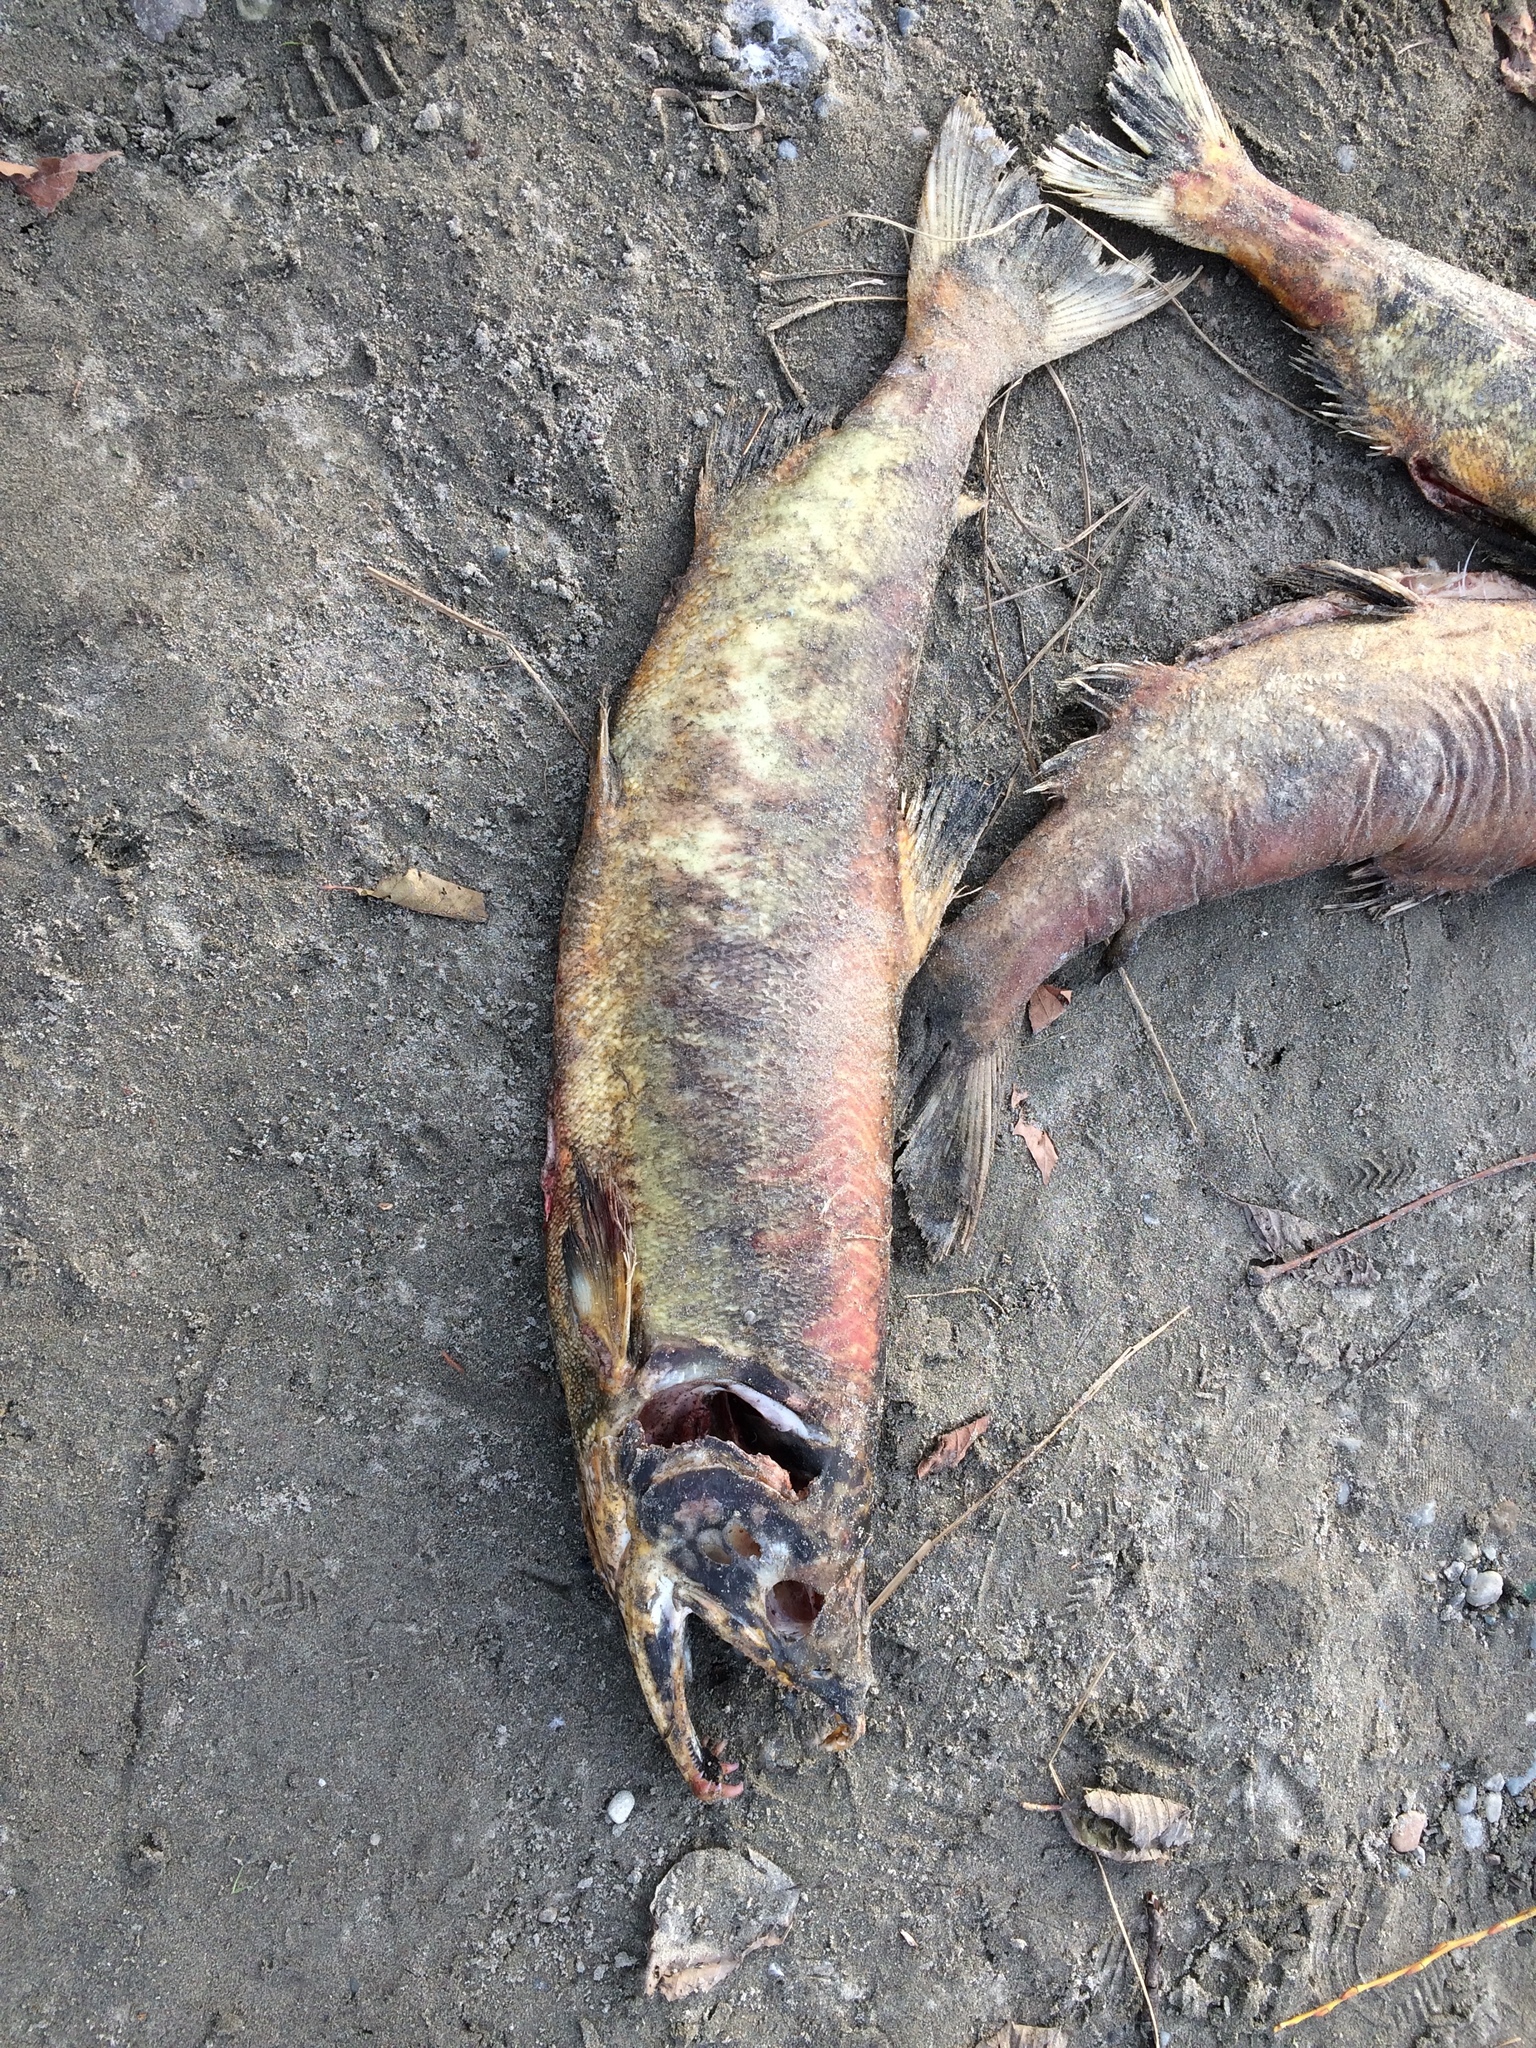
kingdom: Animalia
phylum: Chordata
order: Salmoniformes
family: Salmonidae
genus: Oncorhynchus
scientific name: Oncorhynchus keta
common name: Chum salmon
